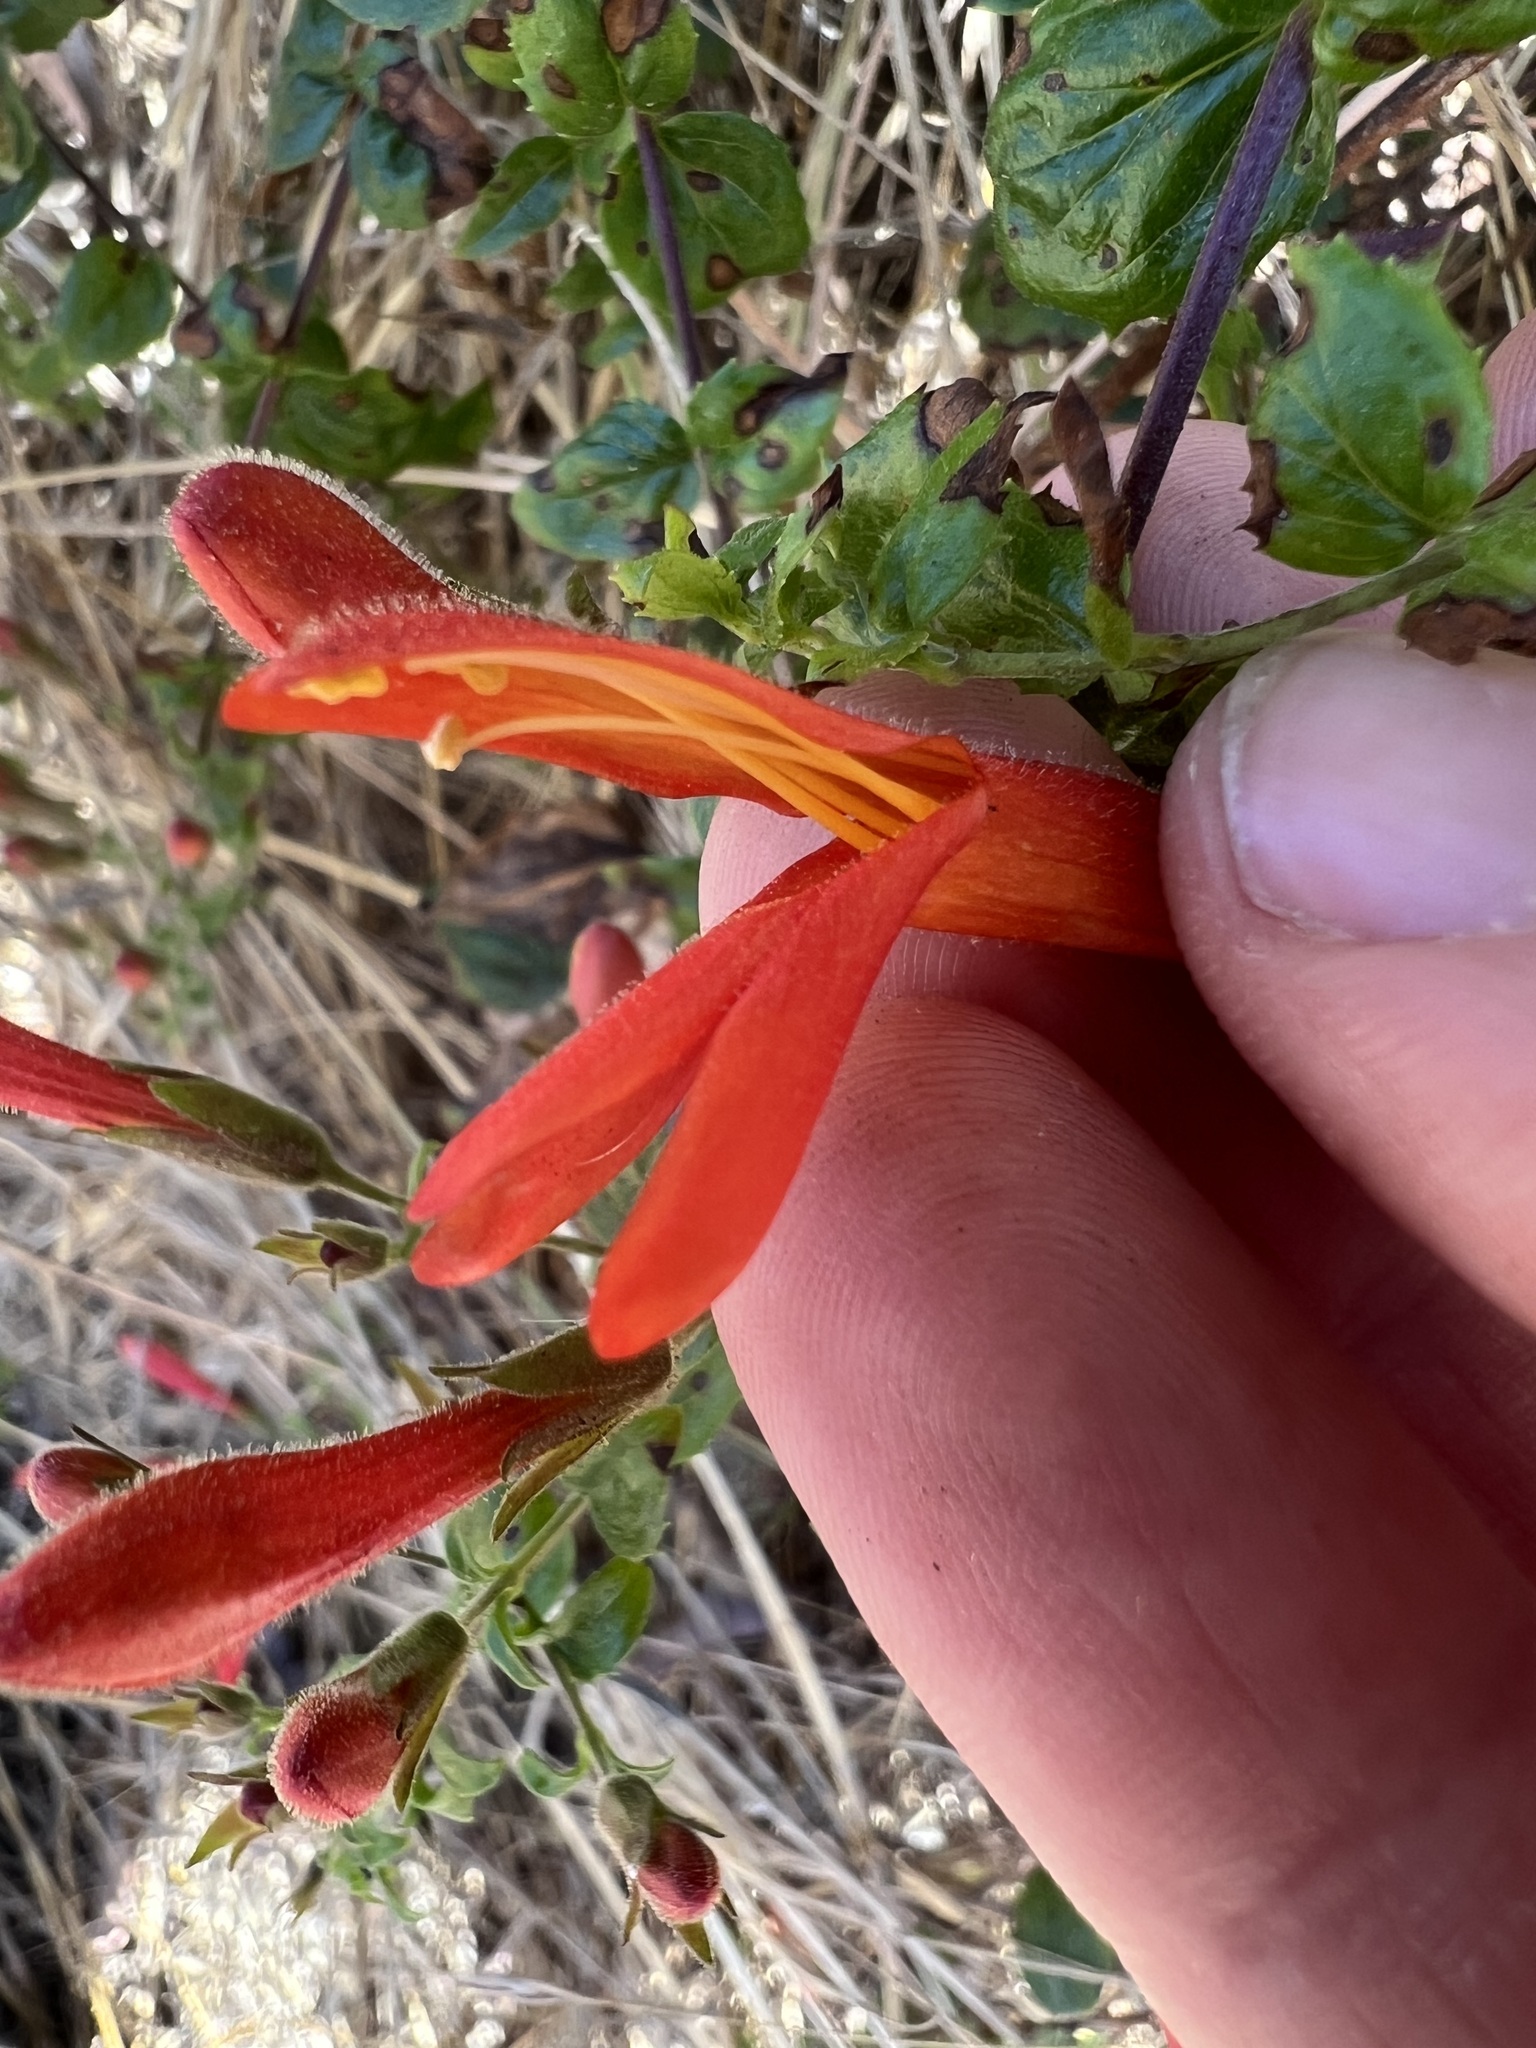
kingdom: Plantae
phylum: Tracheophyta
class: Magnoliopsida
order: Lamiales
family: Plantaginaceae
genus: Keckiella
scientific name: Keckiella cordifolia
